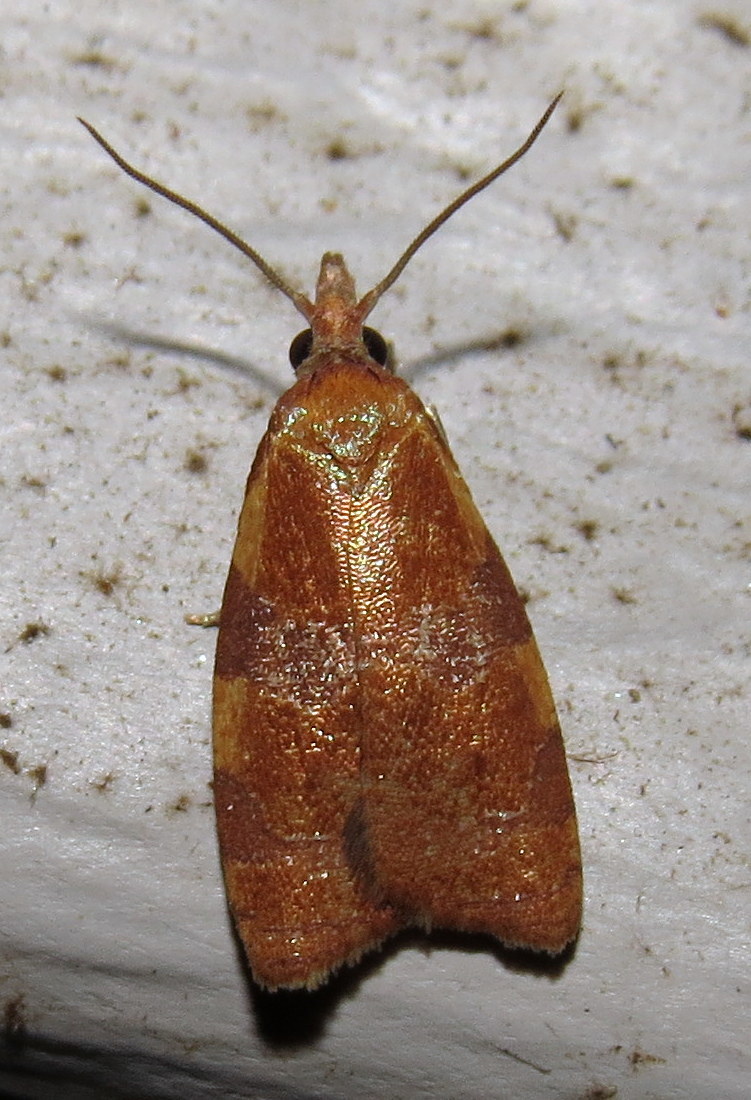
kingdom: Animalia
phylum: Arthropoda
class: Insecta
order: Lepidoptera
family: Tortricidae
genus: Cenopis
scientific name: Cenopis diluticostana
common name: Spring dead-leaf roller moth
